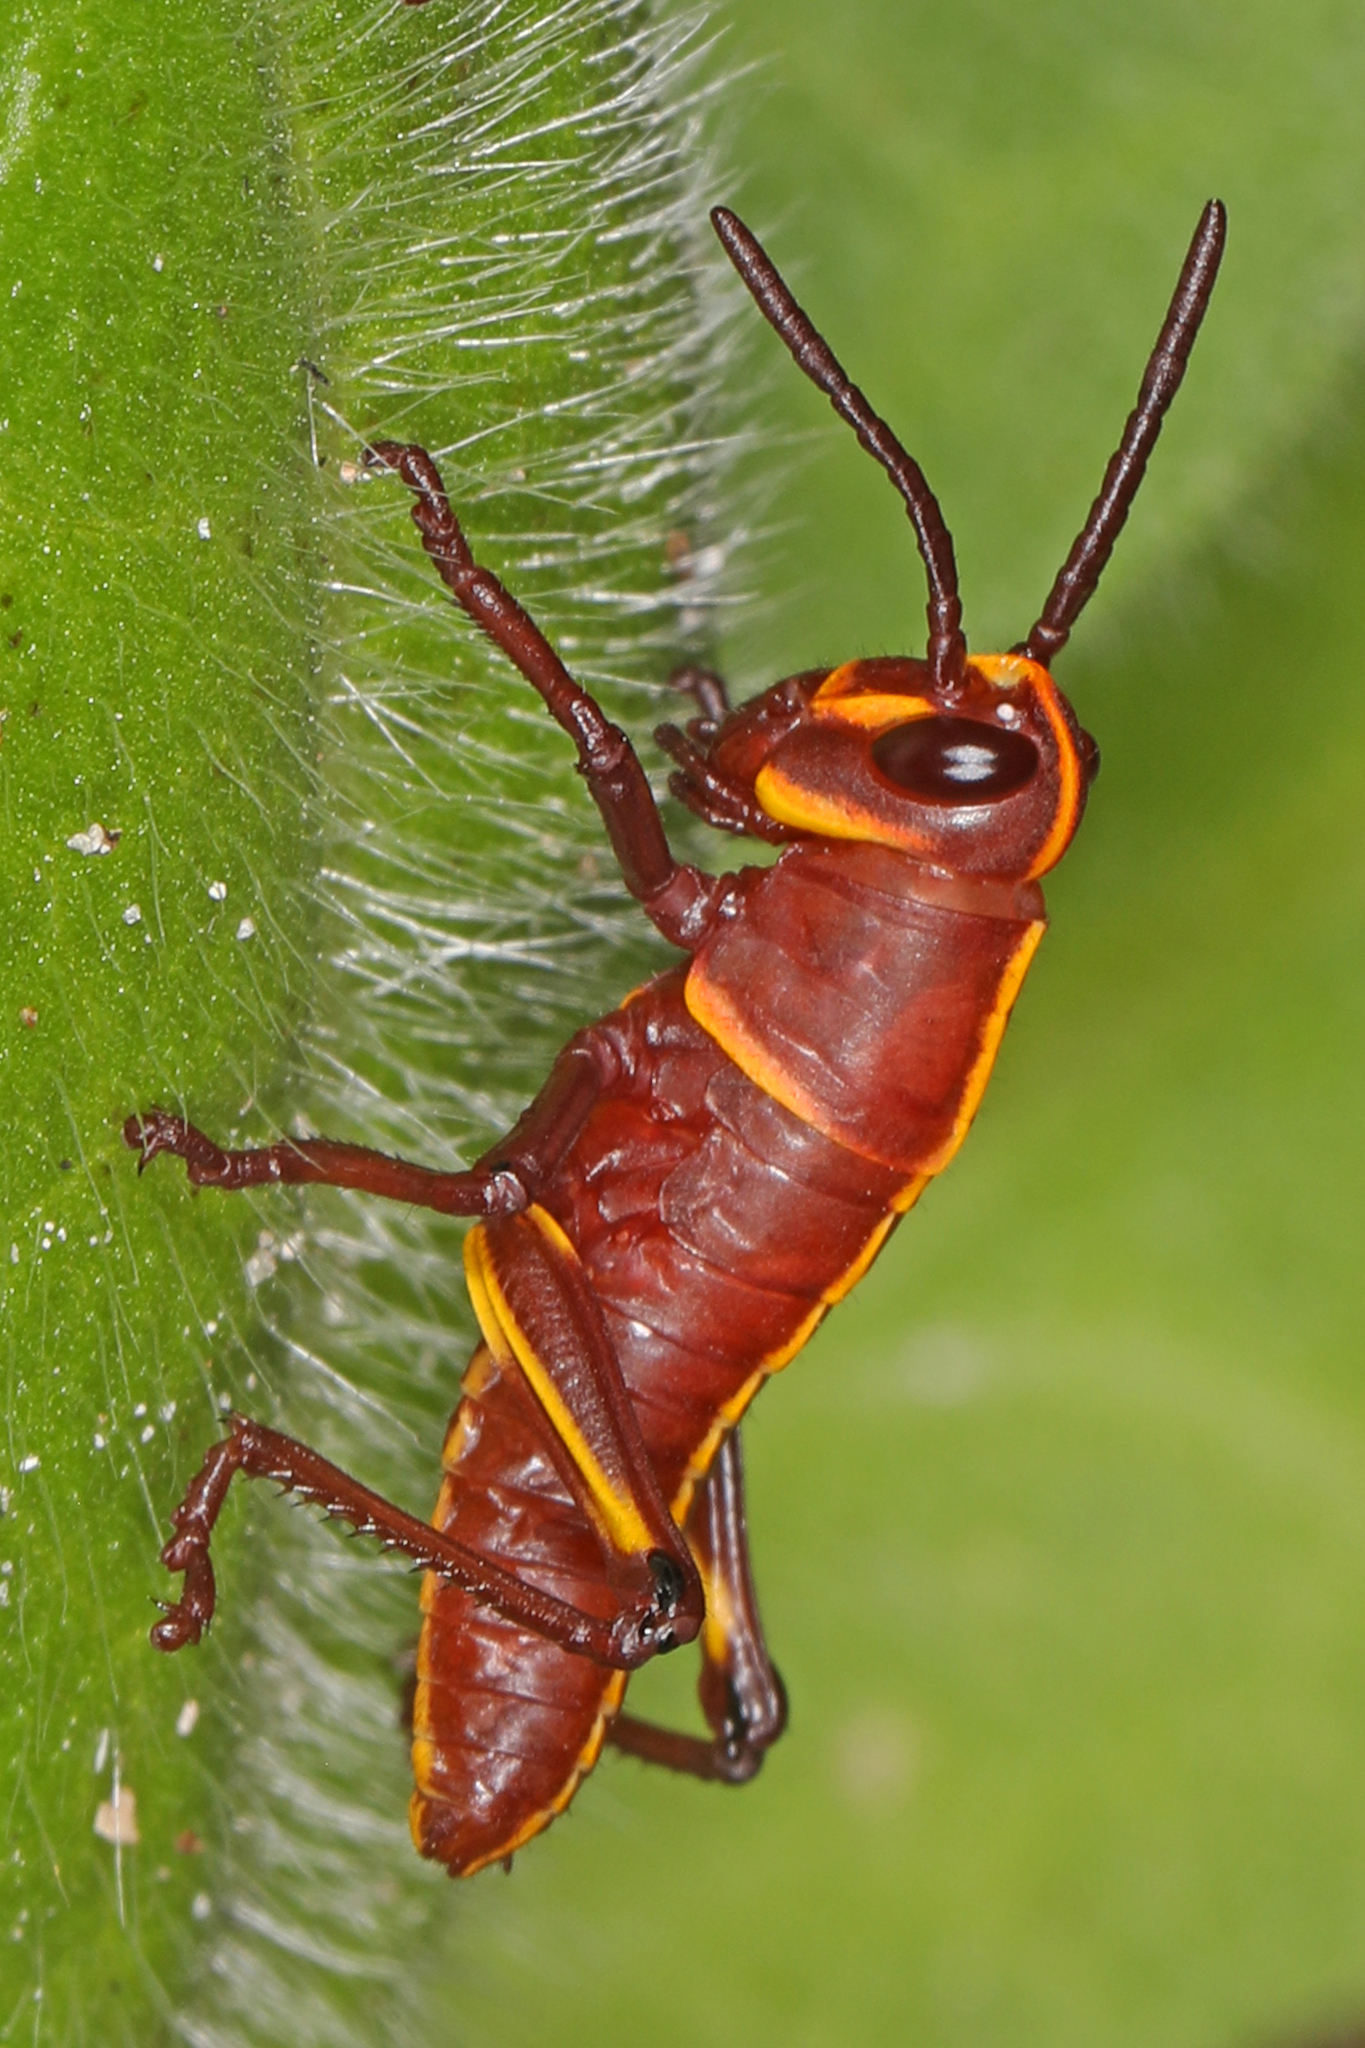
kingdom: Animalia
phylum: Arthropoda
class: Insecta
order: Orthoptera
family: Romaleidae
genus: Romalea
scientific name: Romalea microptera
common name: Eastern lubber grasshopper
